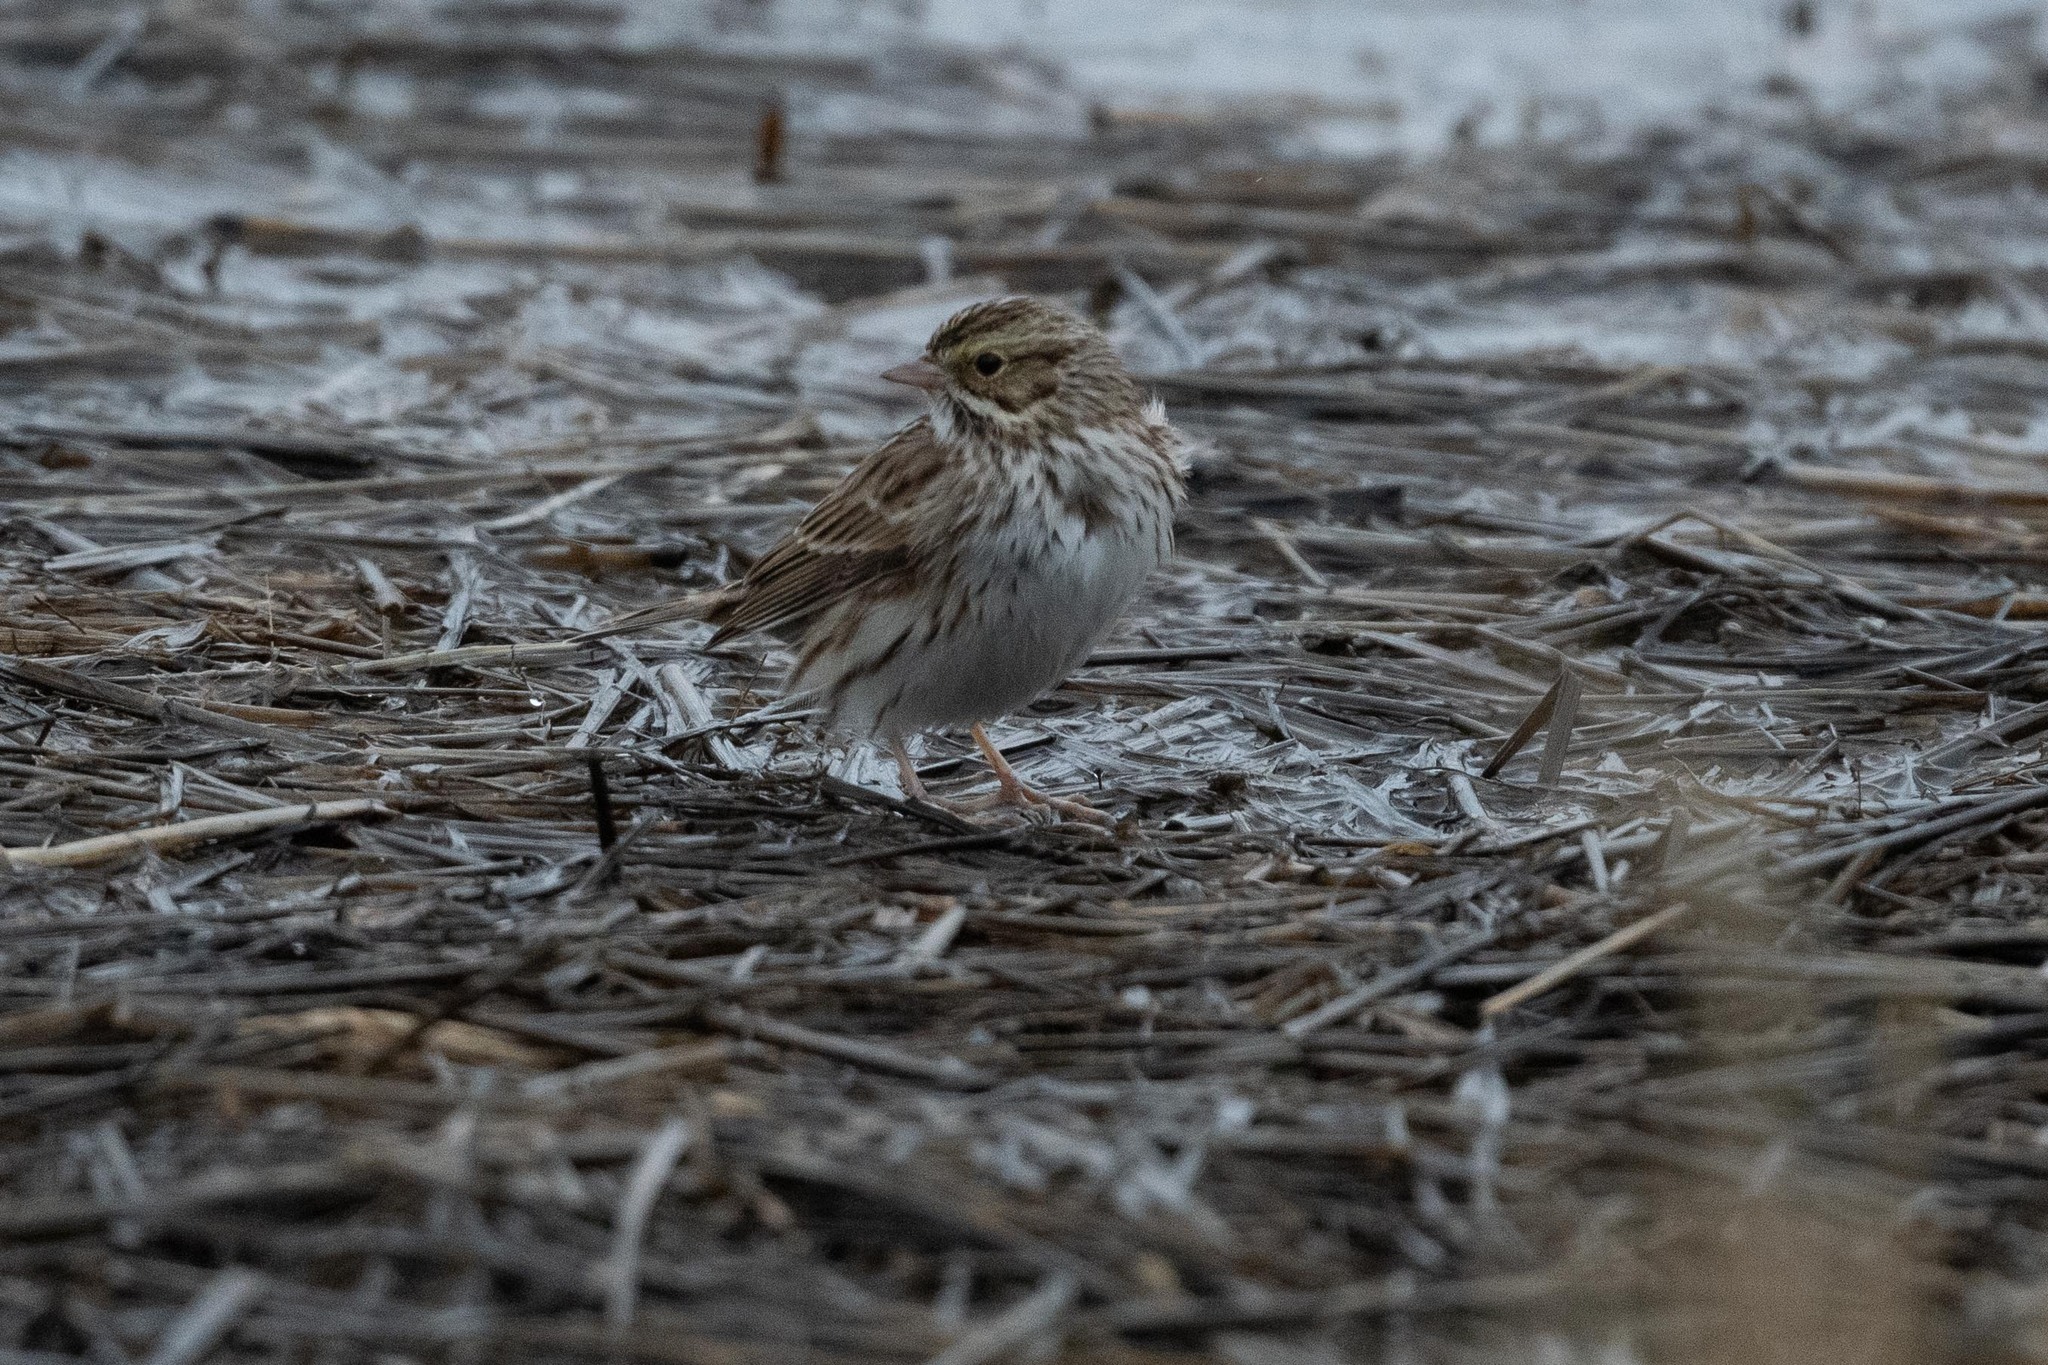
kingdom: Animalia
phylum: Chordata
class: Aves
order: Passeriformes
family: Passerellidae
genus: Passerculus
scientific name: Passerculus sandwichensis
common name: Savannah sparrow
